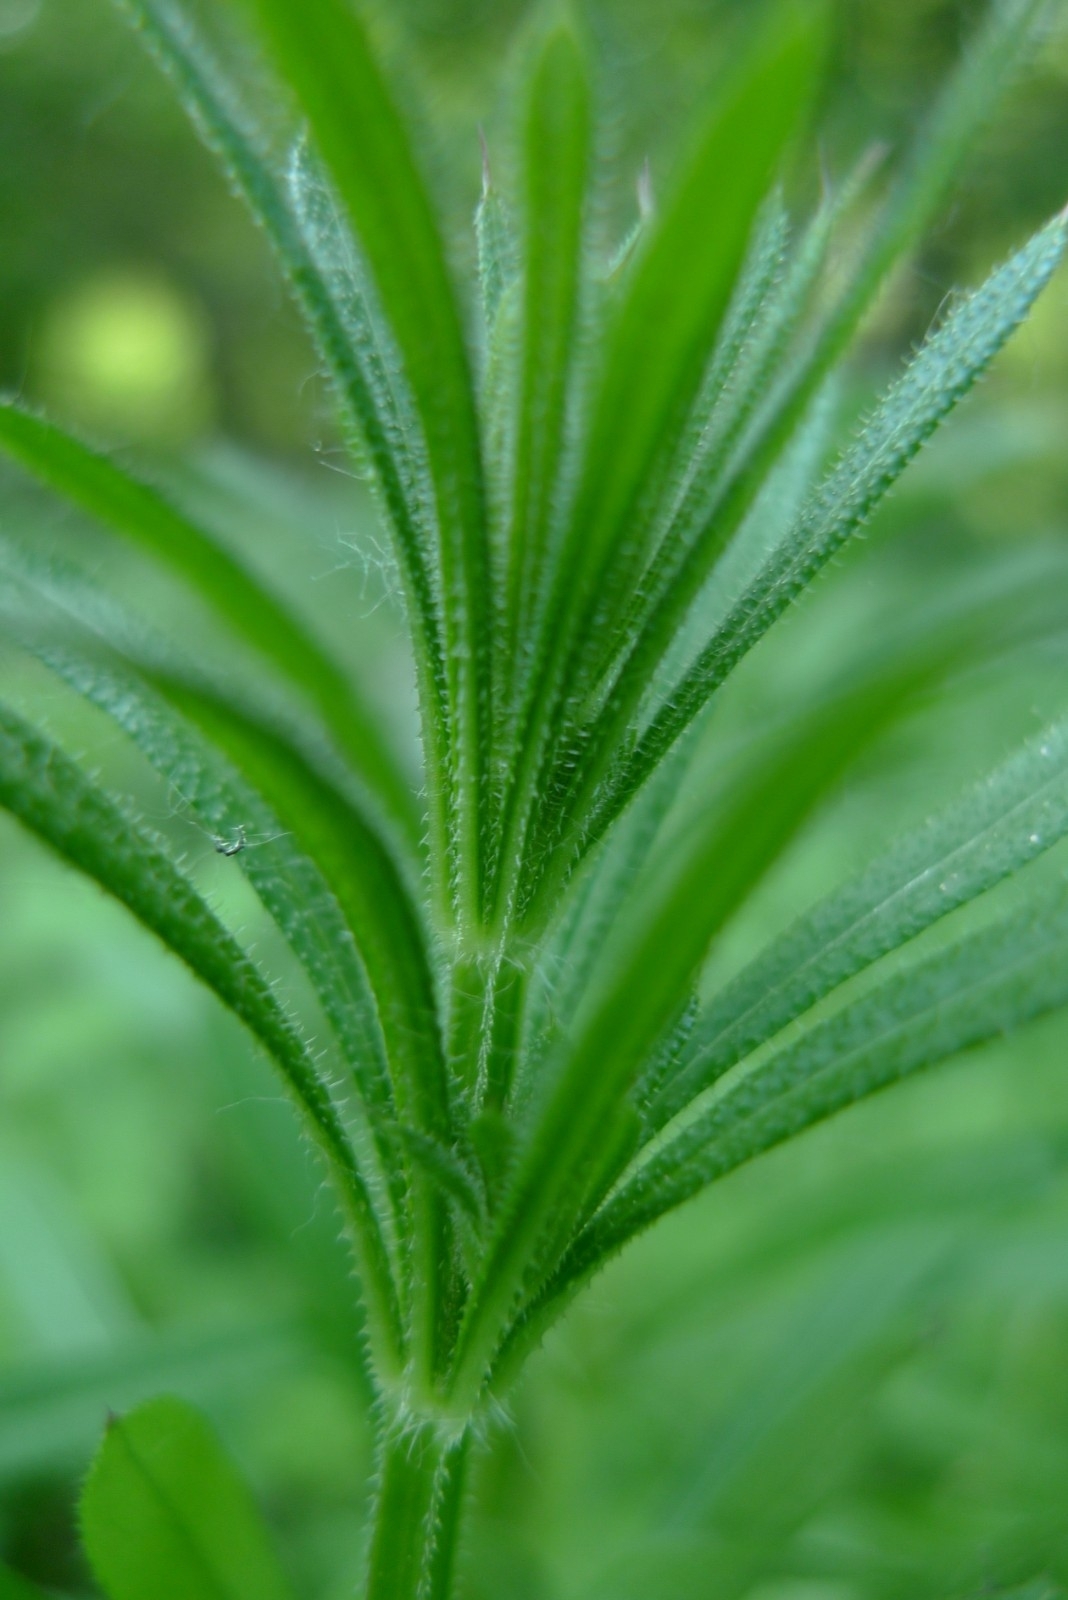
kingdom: Plantae
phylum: Tracheophyta
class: Magnoliopsida
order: Gentianales
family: Rubiaceae
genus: Galium
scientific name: Galium aparine
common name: Cleavers
